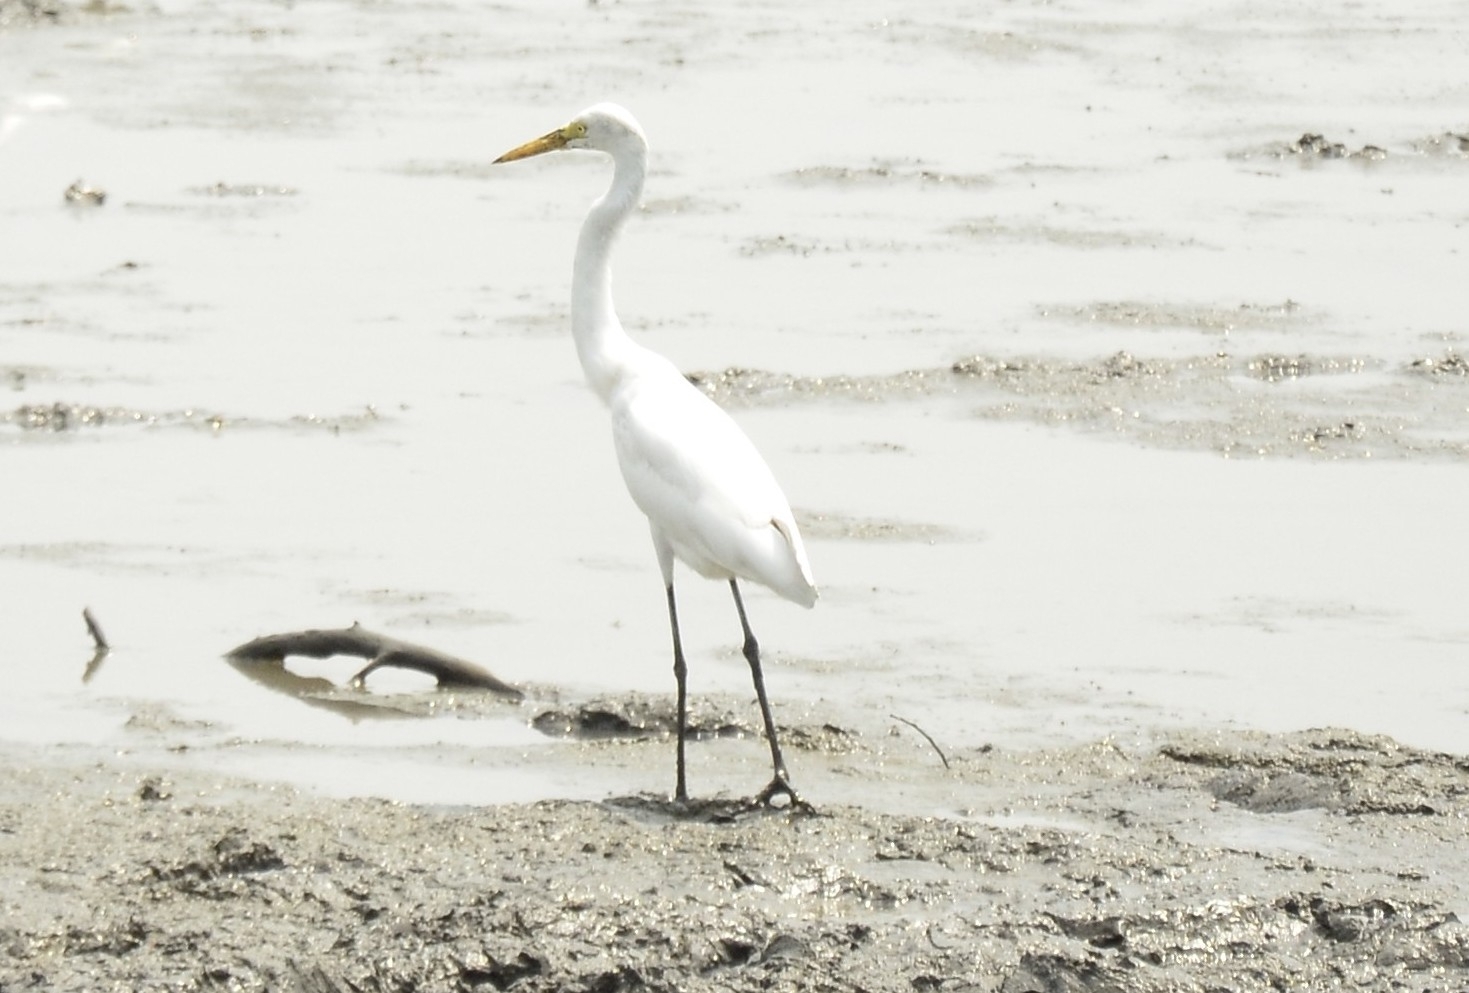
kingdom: Animalia
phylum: Chordata
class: Aves
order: Pelecaniformes
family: Ardeidae
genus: Egretta
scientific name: Egretta intermedia
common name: Intermediate egret
